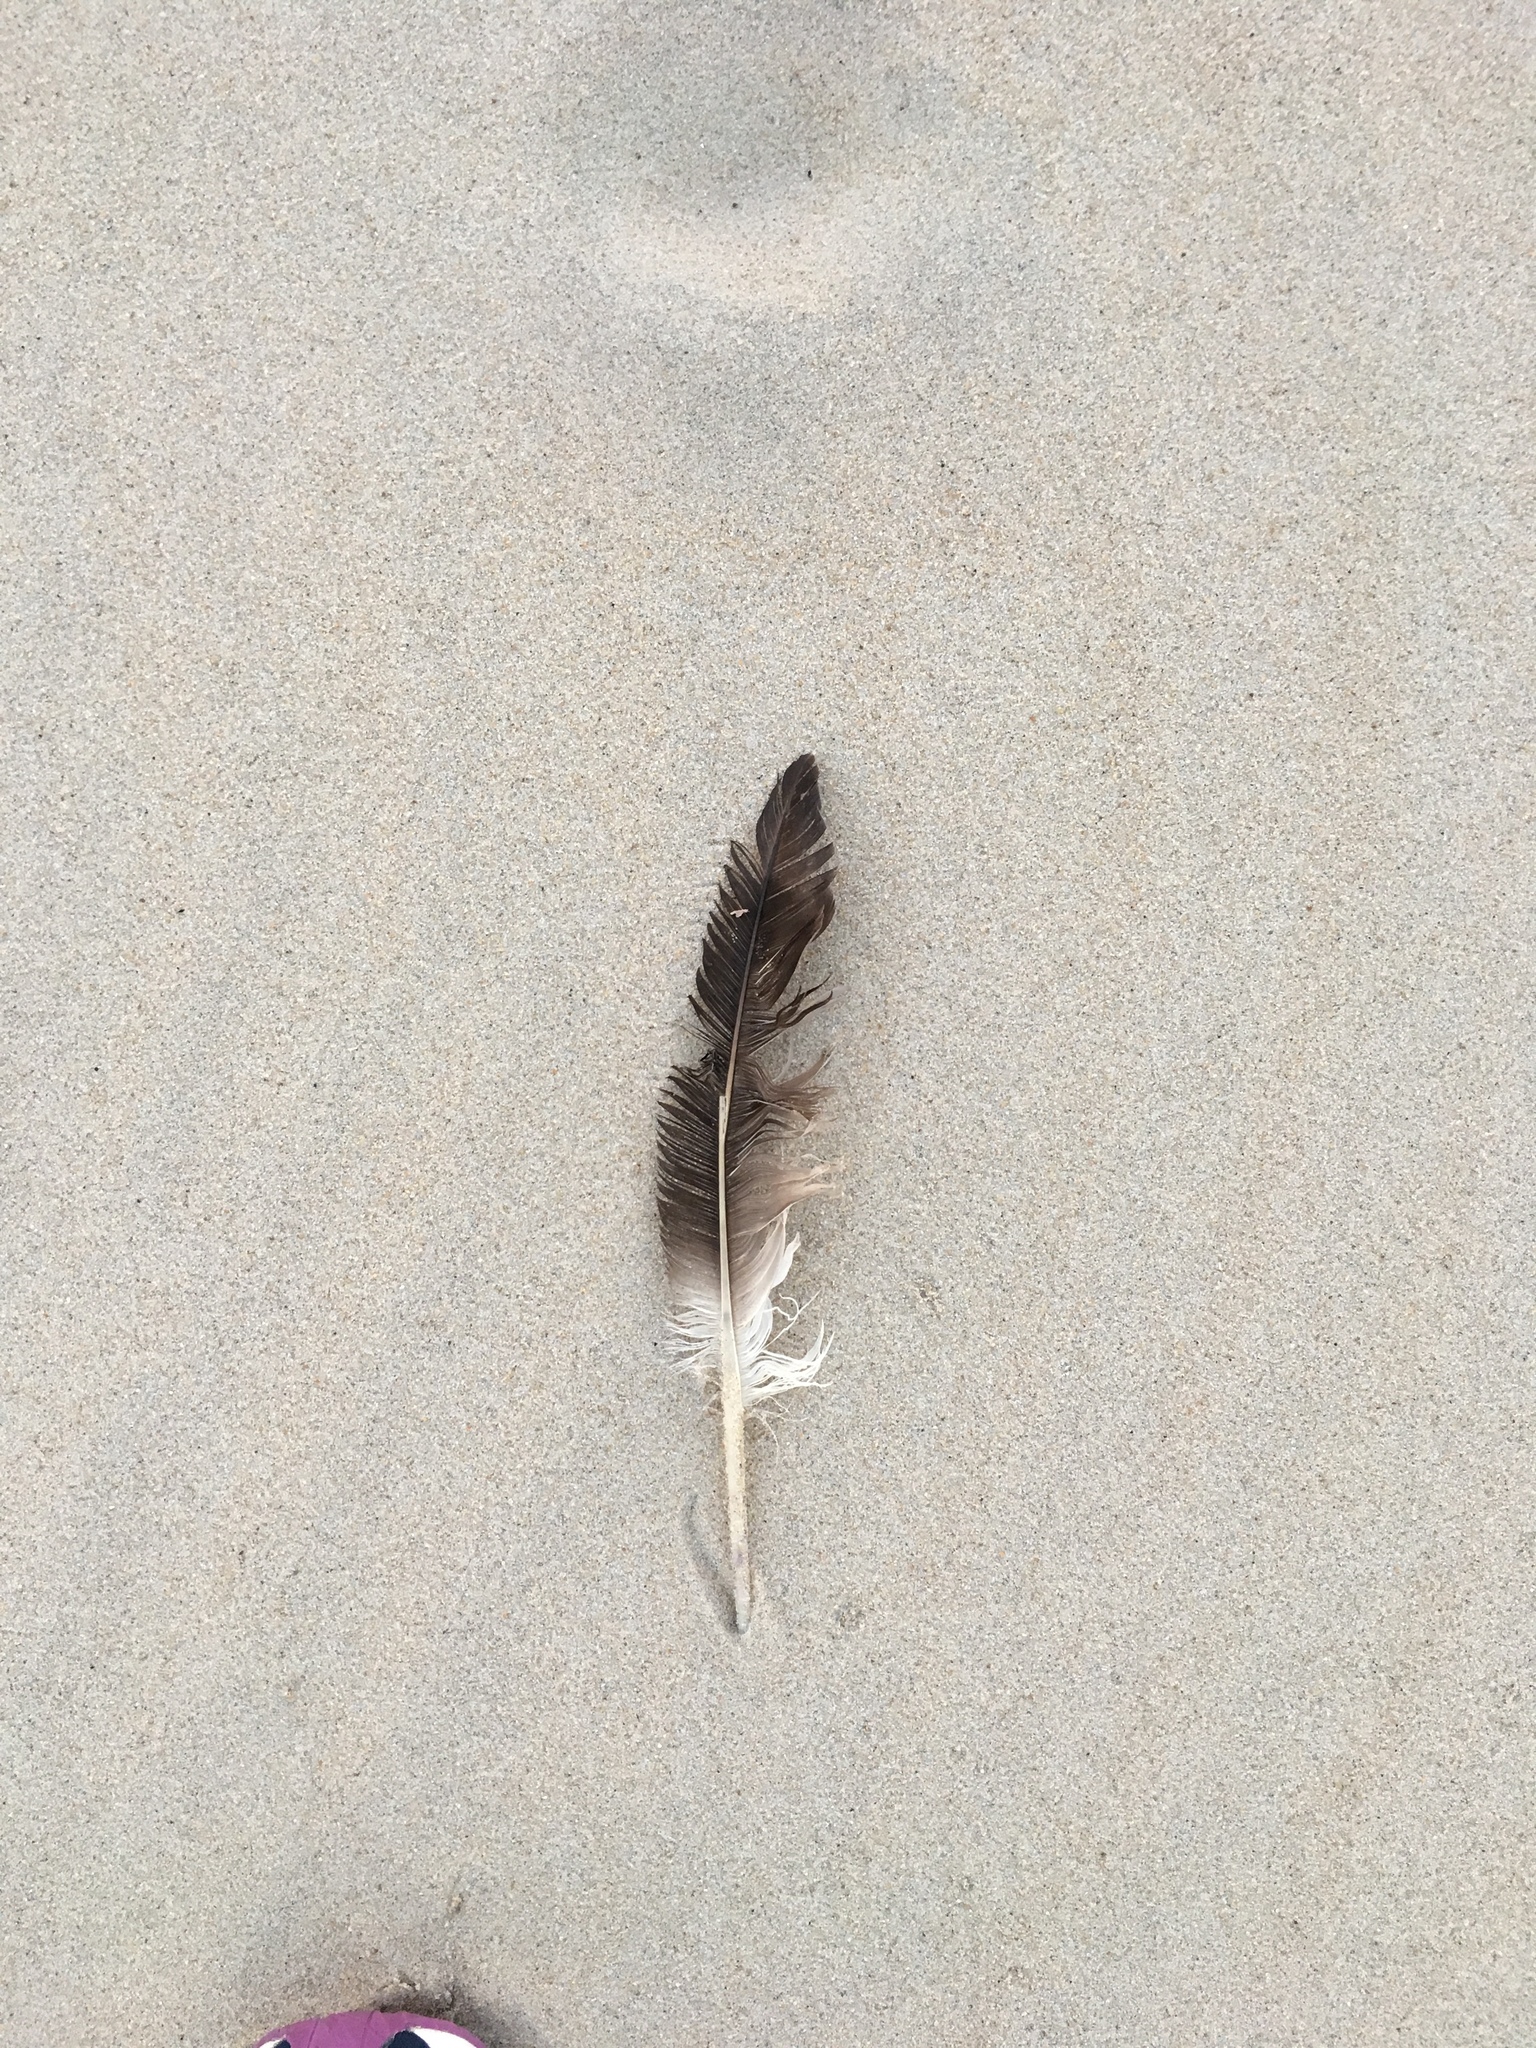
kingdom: Animalia
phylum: Chordata
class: Aves
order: Suliformes
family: Sulidae
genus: Morus
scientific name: Morus bassanus
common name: Northern gannet
